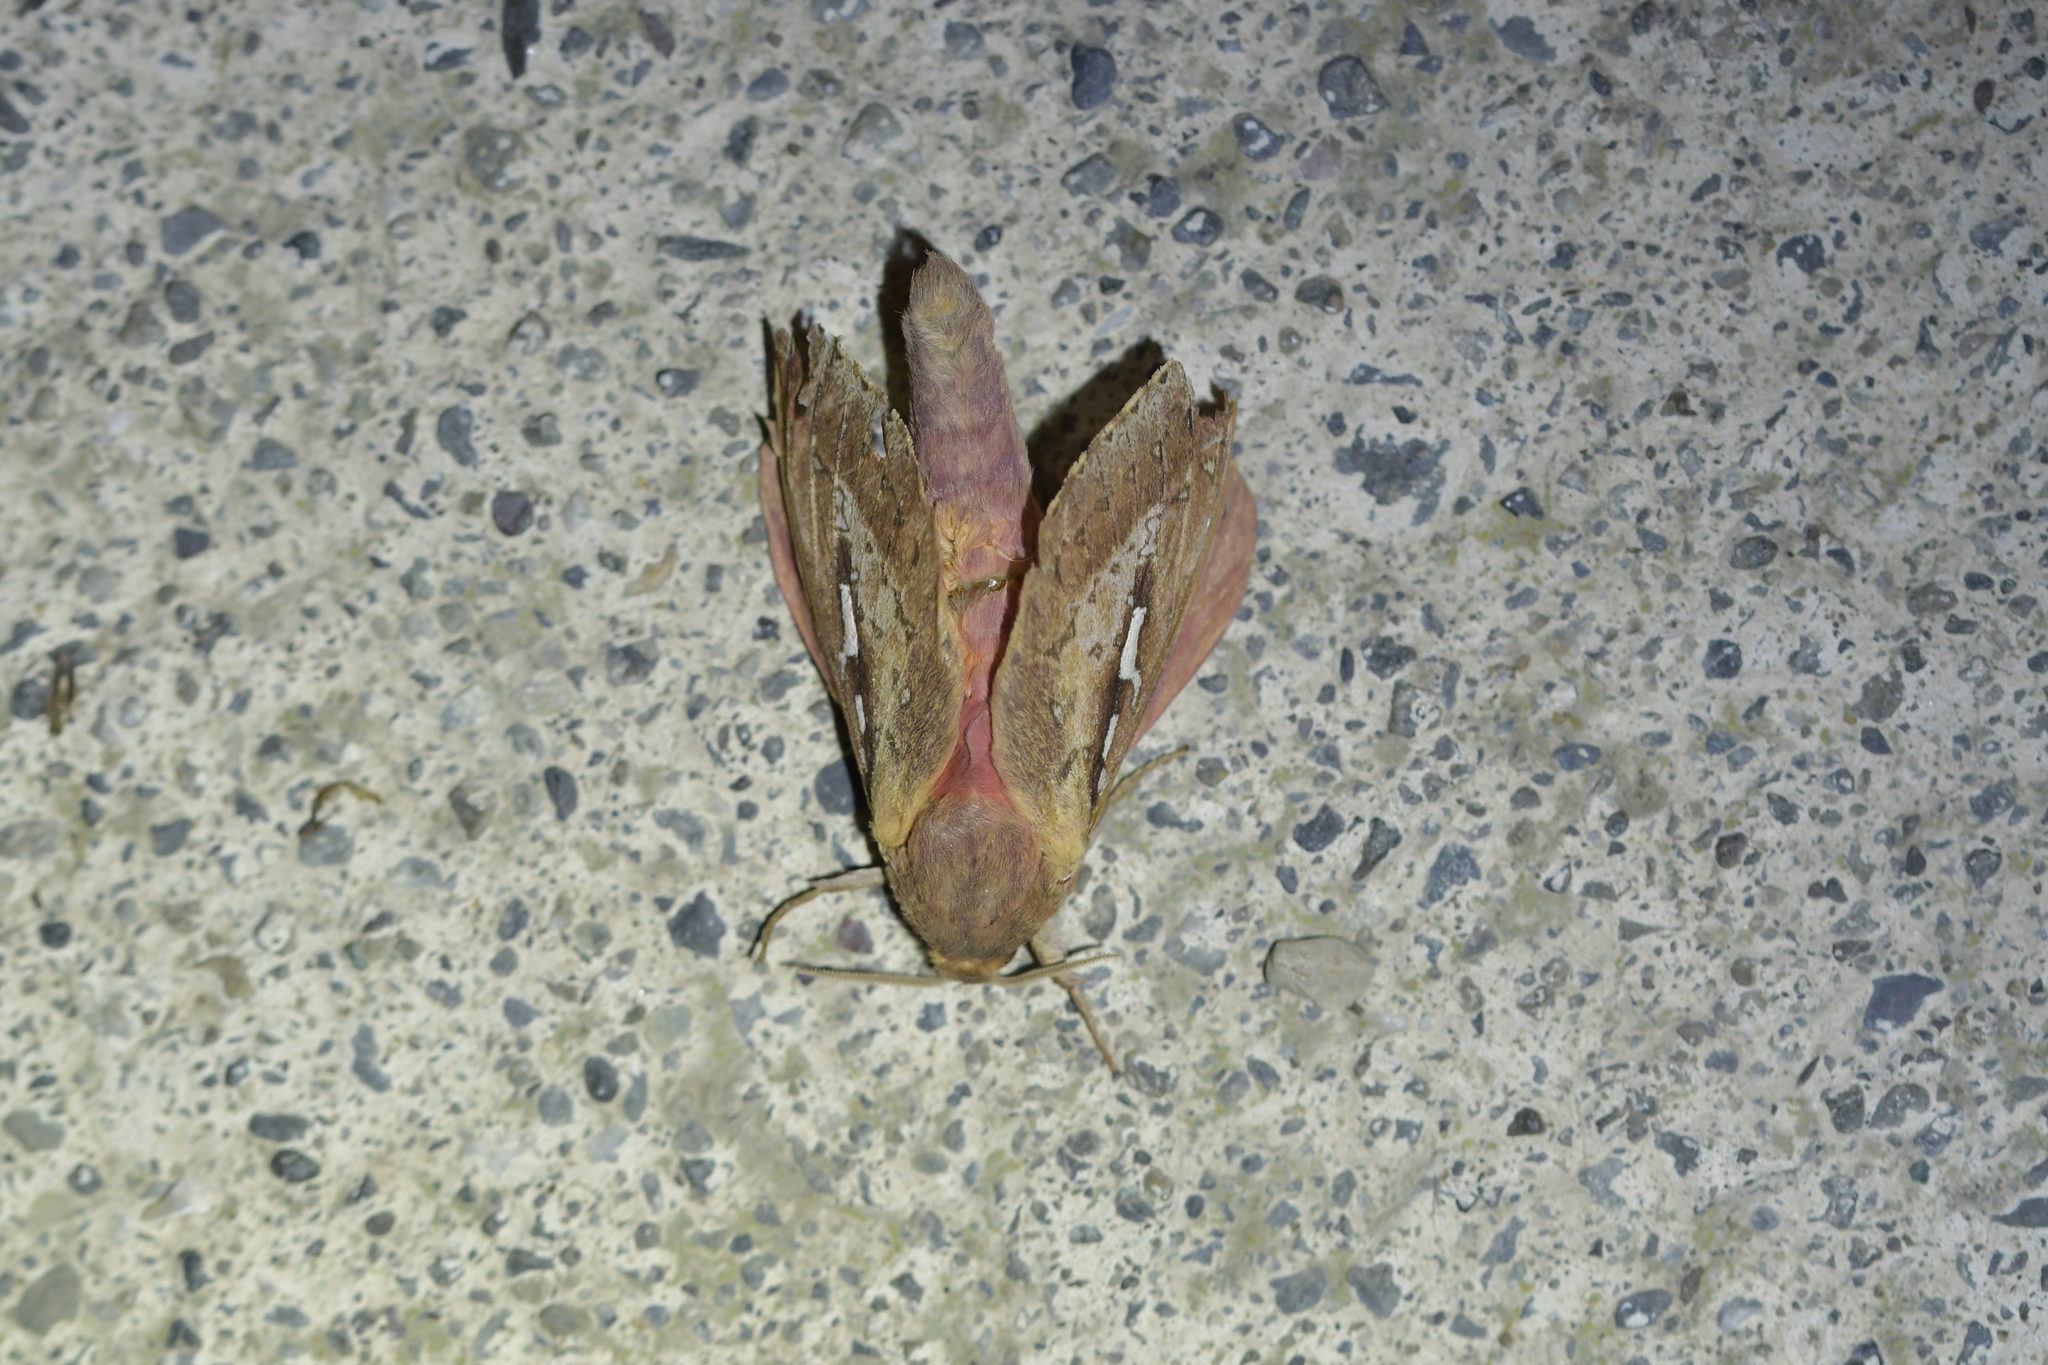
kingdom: Animalia
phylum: Arthropoda
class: Insecta
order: Lepidoptera
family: Hepialidae
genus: Wiseana
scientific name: Wiseana signata
